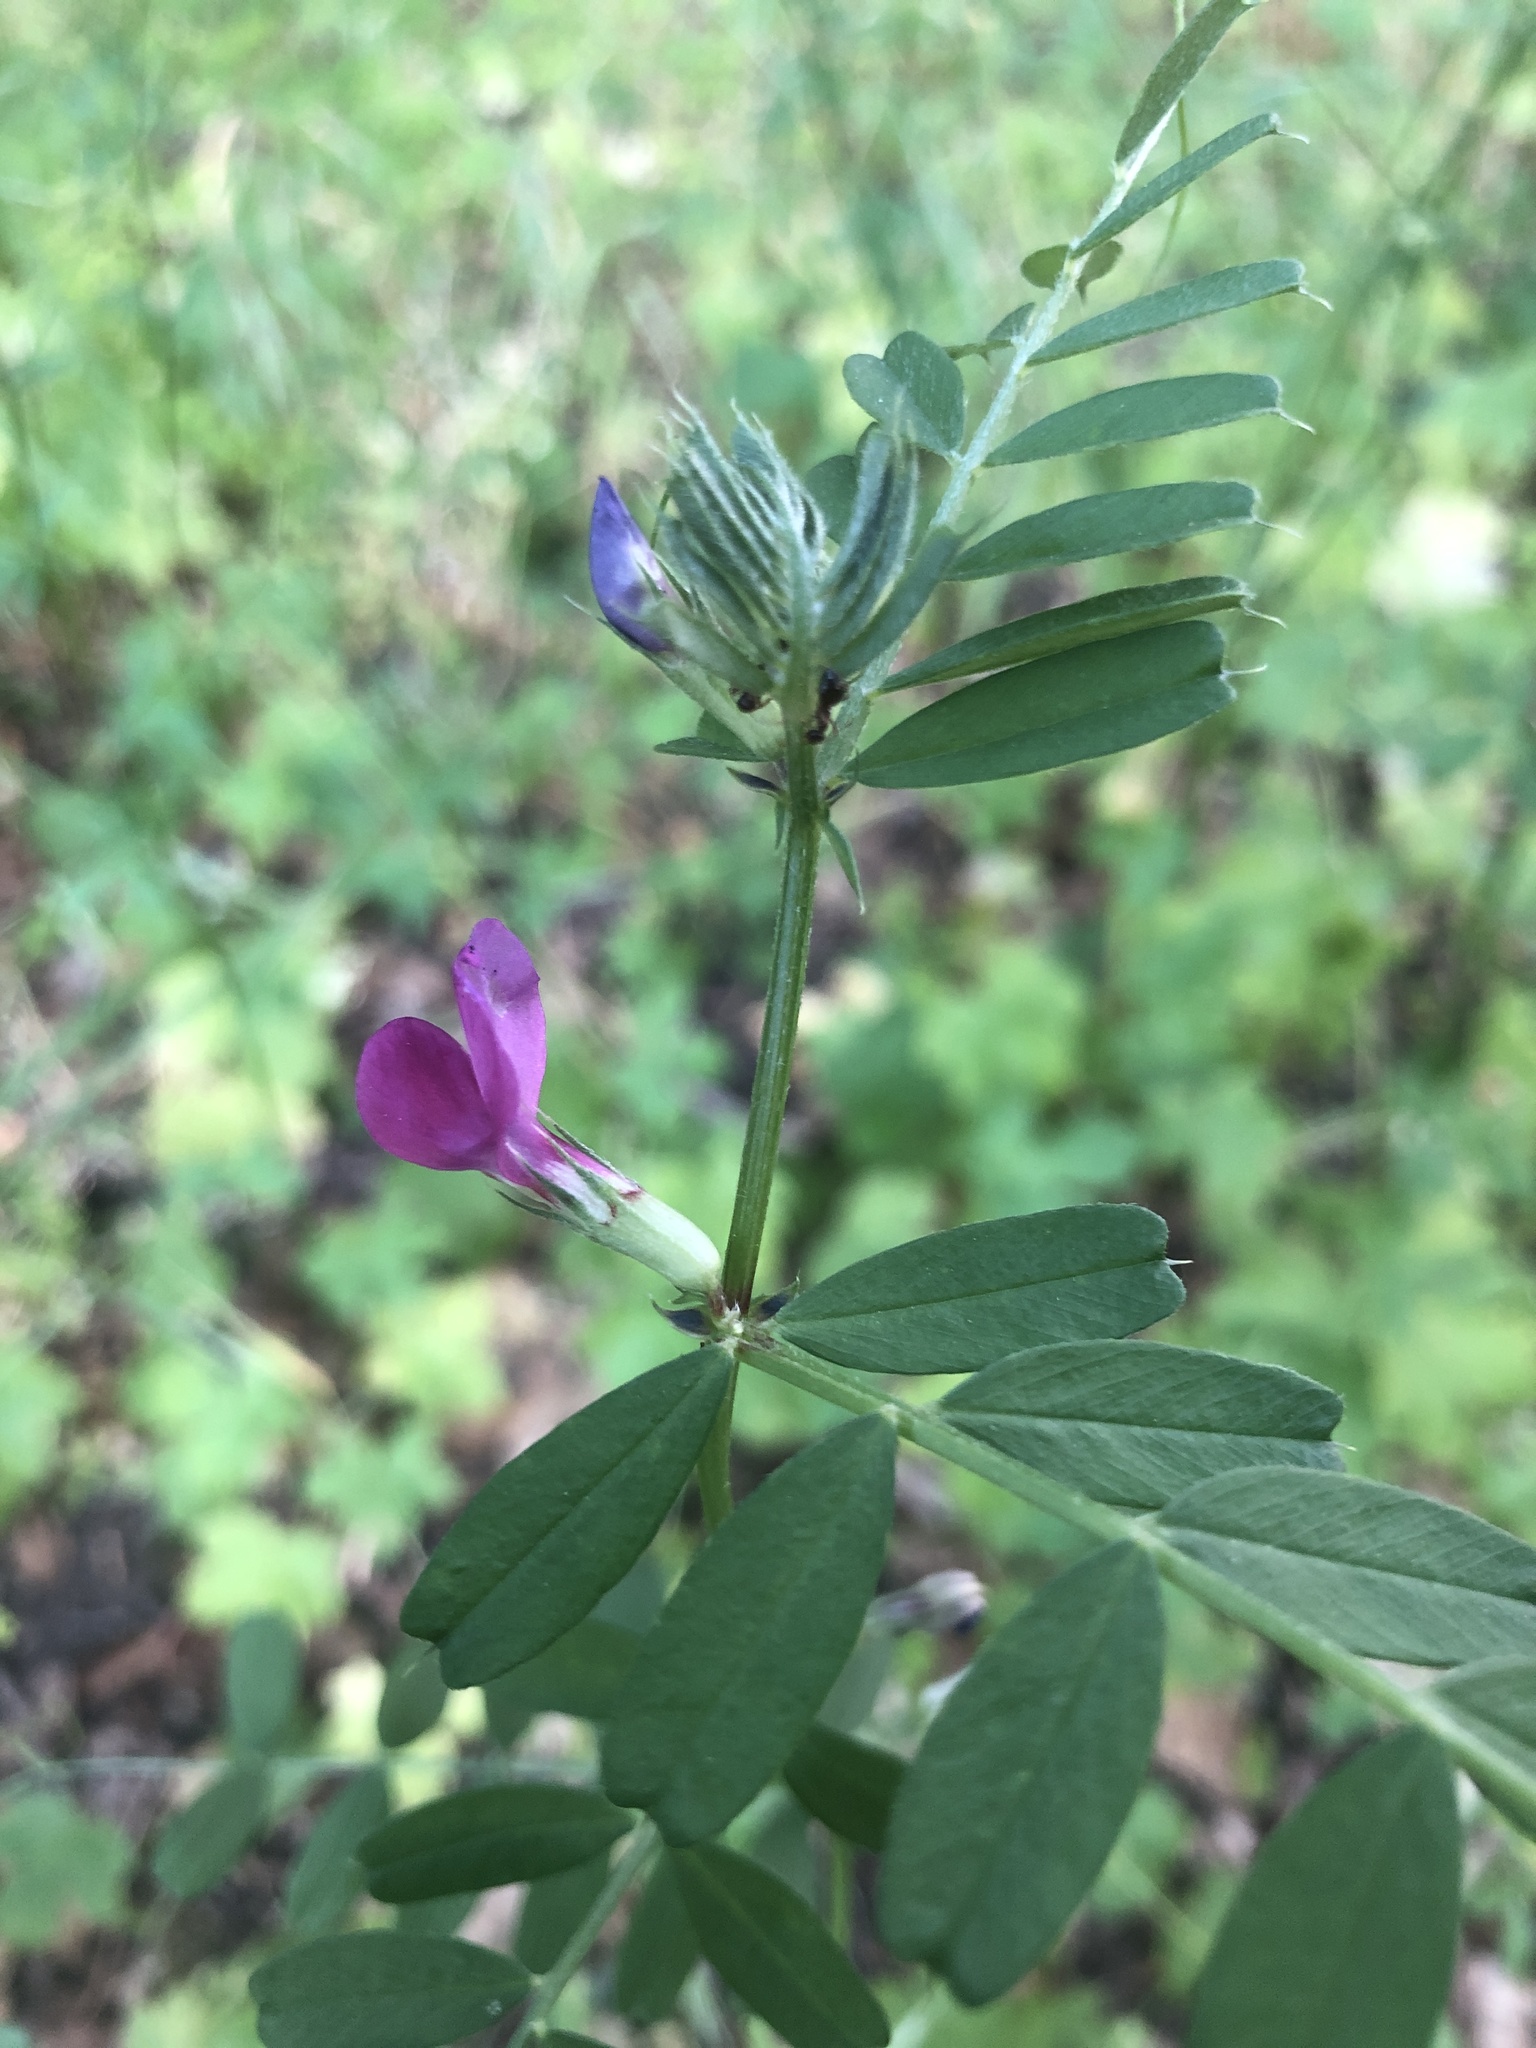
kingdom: Plantae
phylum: Tracheophyta
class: Magnoliopsida
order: Fabales
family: Fabaceae
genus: Vicia
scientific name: Vicia sativa
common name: Garden vetch
